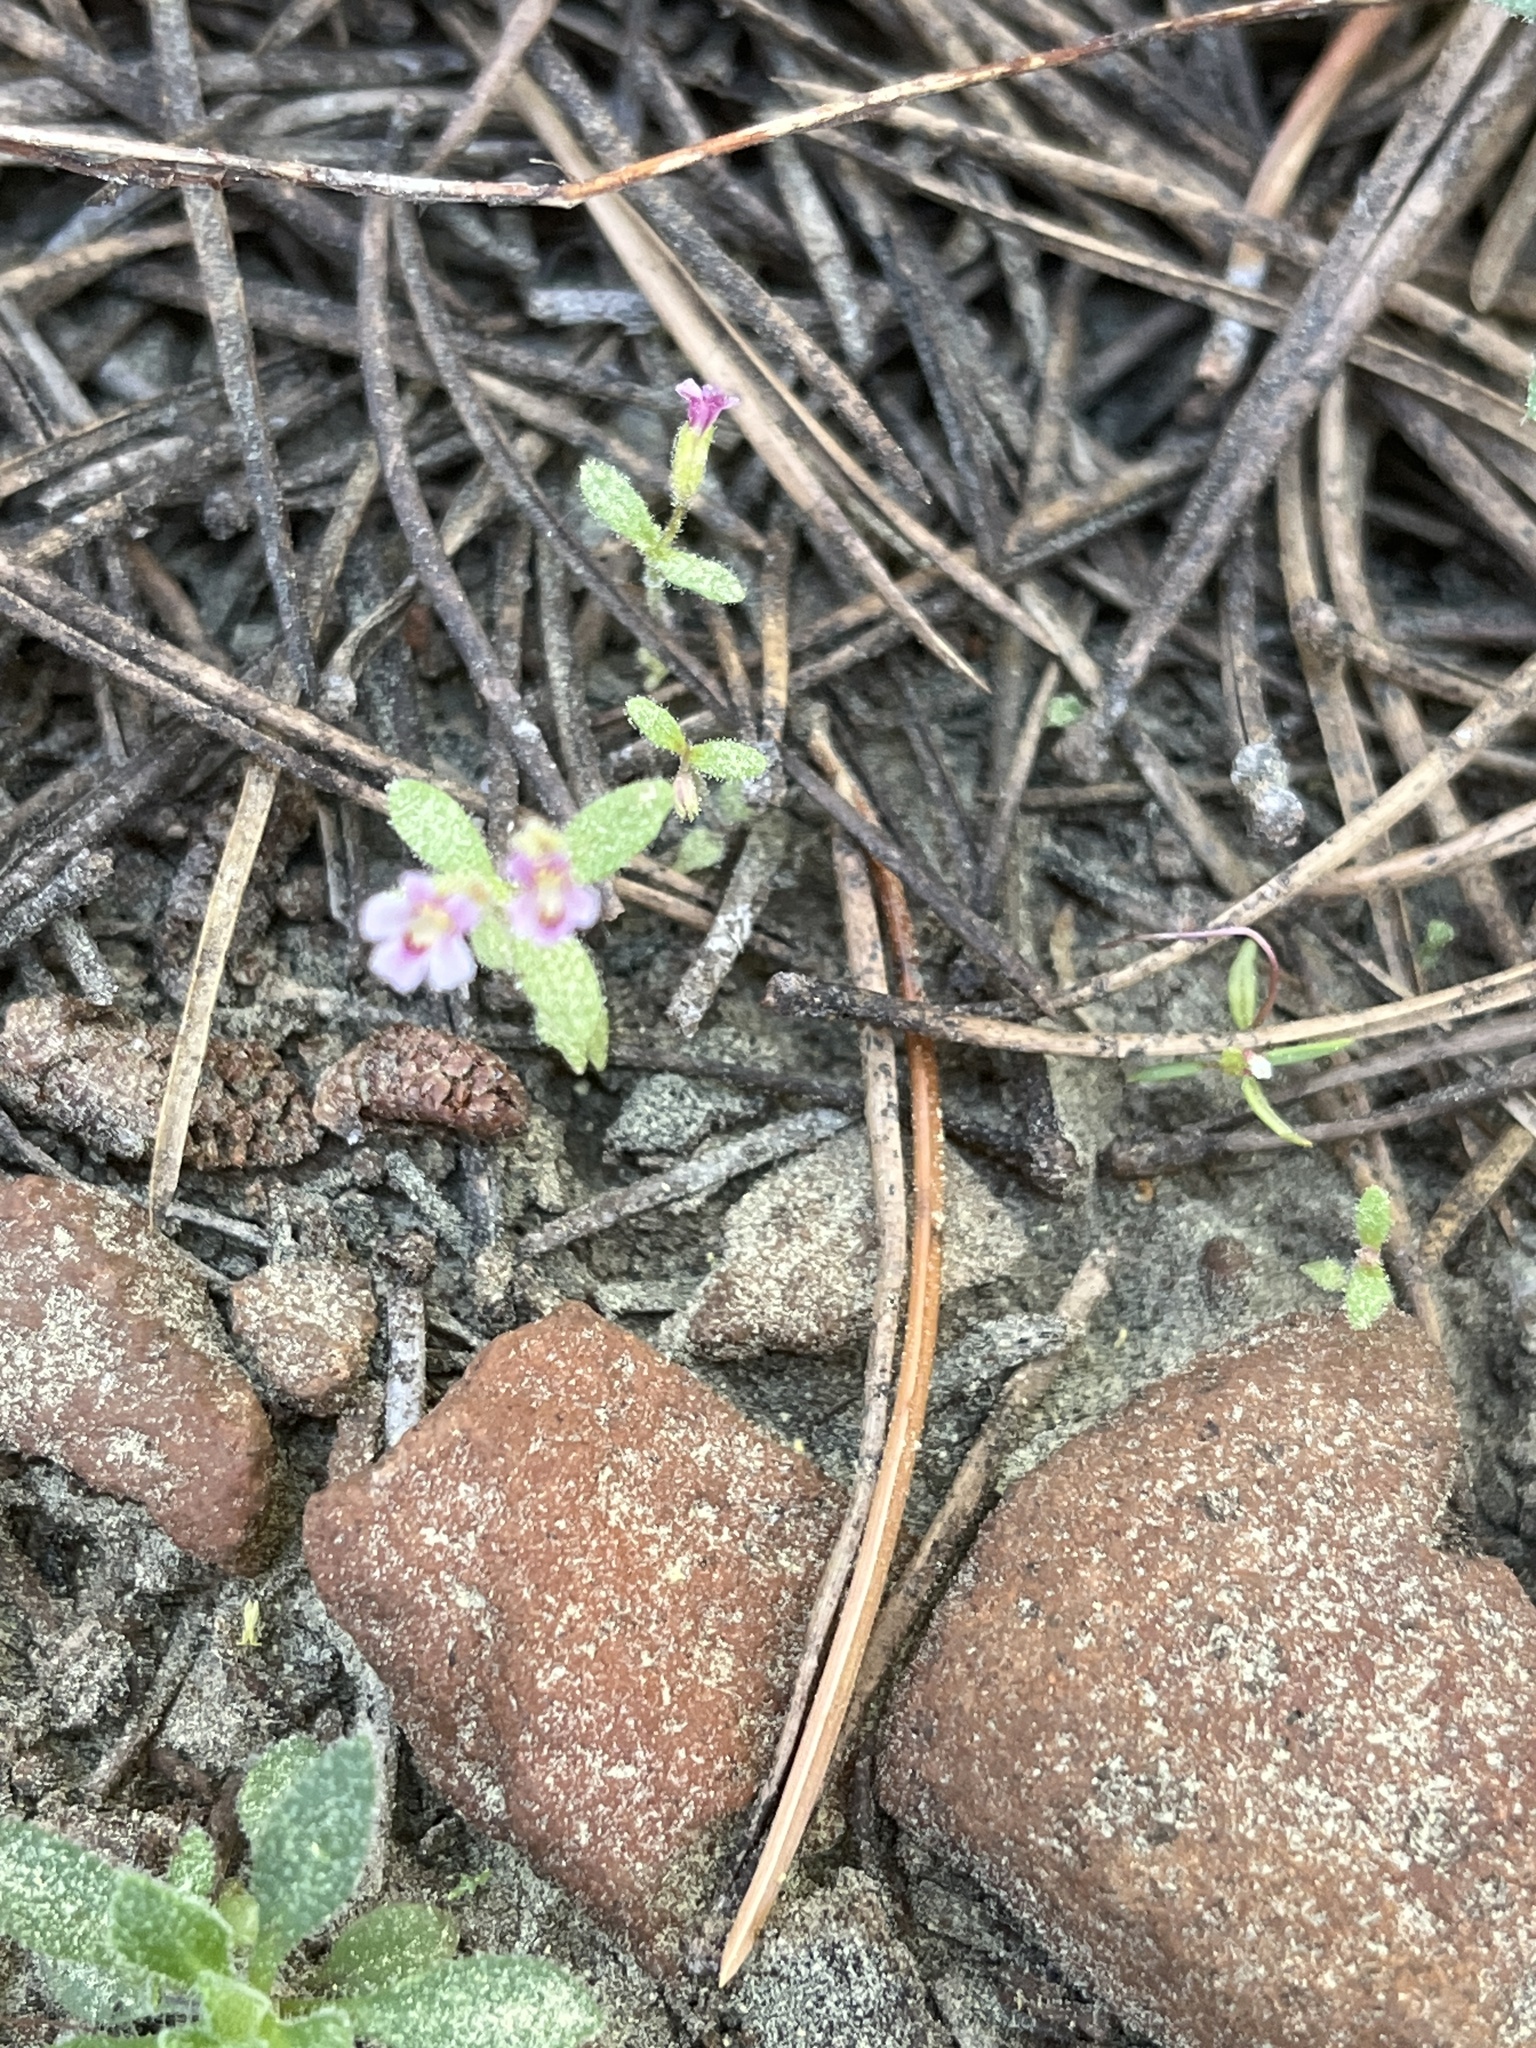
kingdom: Plantae
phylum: Tracheophyta
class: Magnoliopsida
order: Lamiales
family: Phrymaceae
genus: Erythranthe
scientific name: Erythranthe breweri
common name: Brewer's monkeyflower
